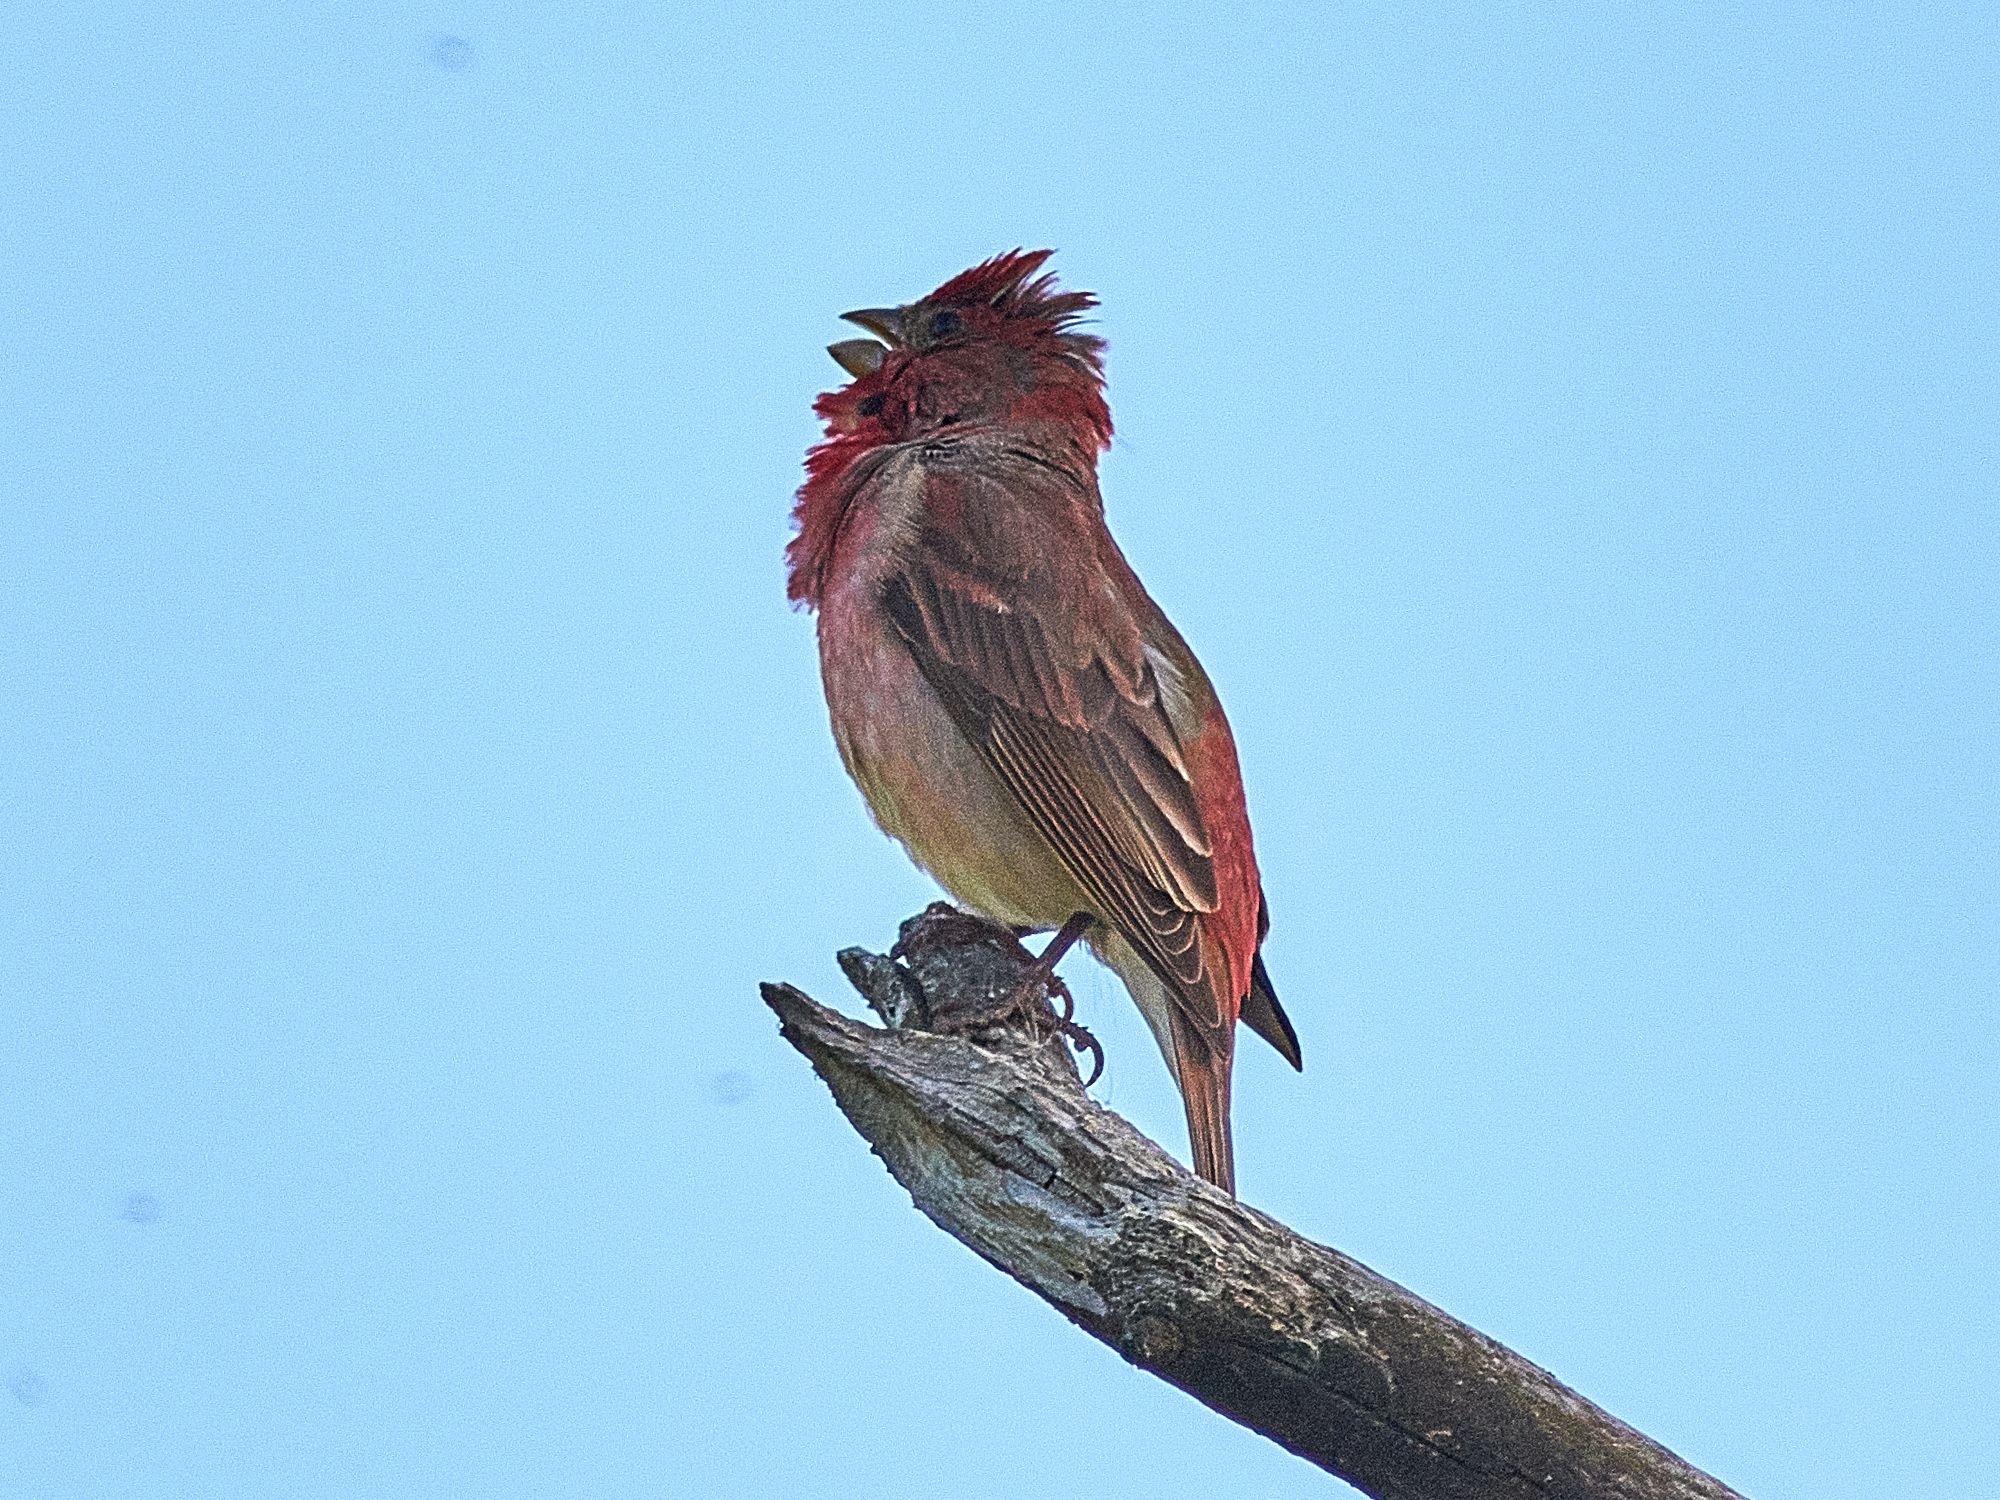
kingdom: Animalia
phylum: Chordata
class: Aves
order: Passeriformes
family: Fringillidae
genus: Carpodacus
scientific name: Carpodacus erythrinus
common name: Common rosefinch
